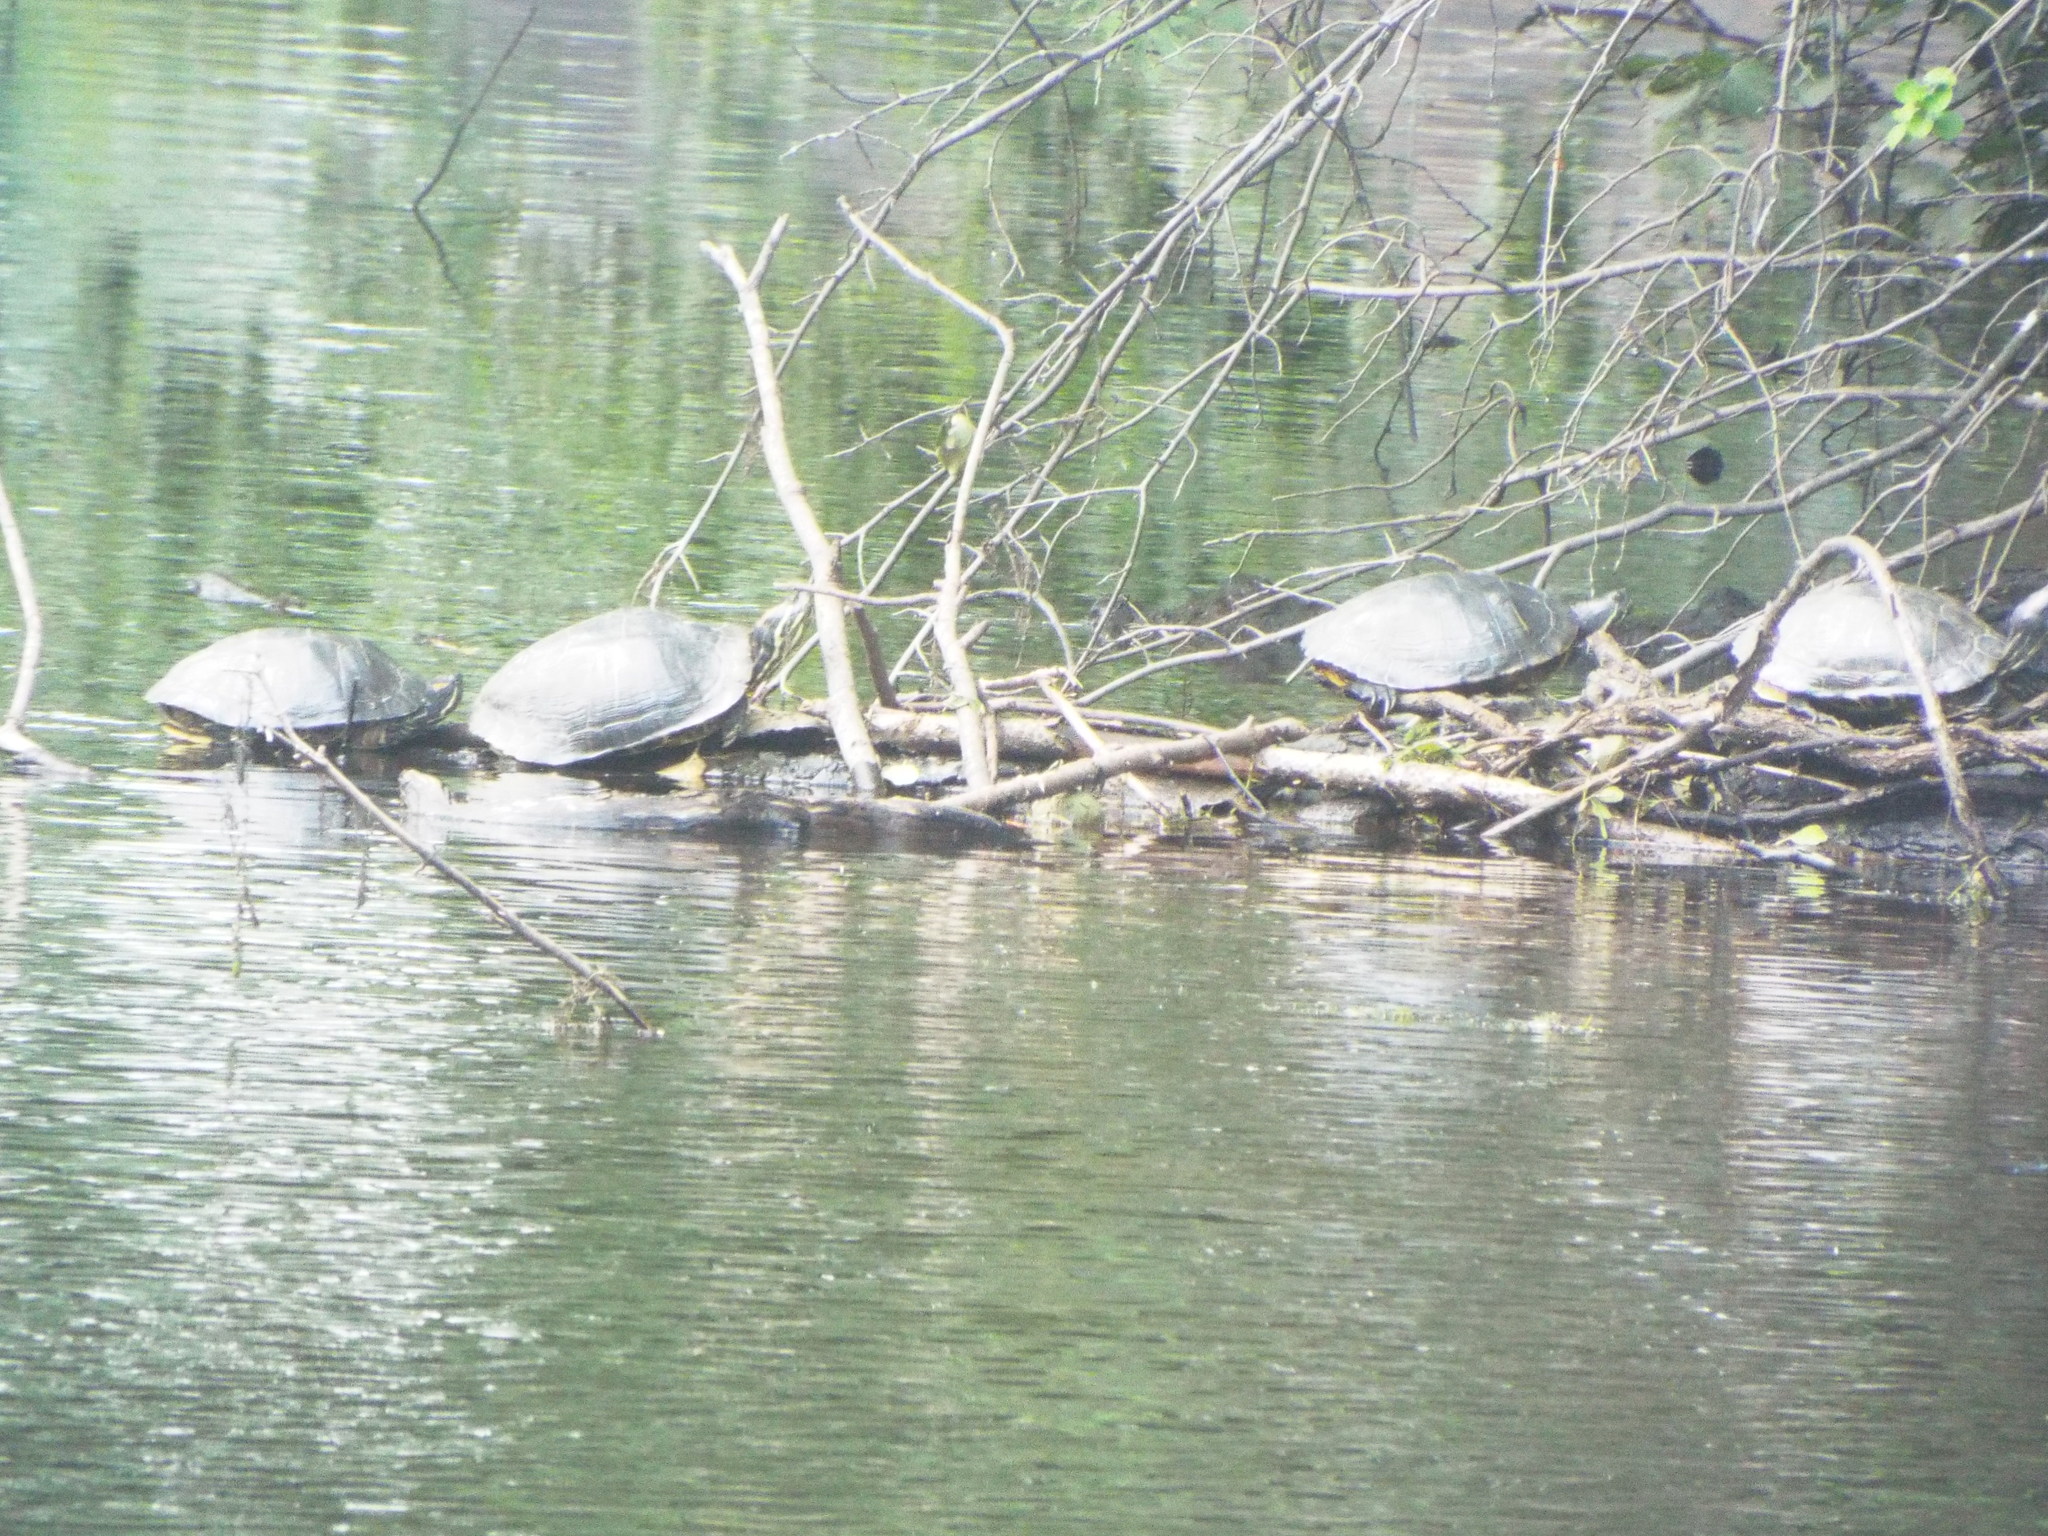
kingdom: Animalia
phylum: Chordata
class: Testudines
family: Emydidae
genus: Trachemys
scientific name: Trachemys scripta
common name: Slider
